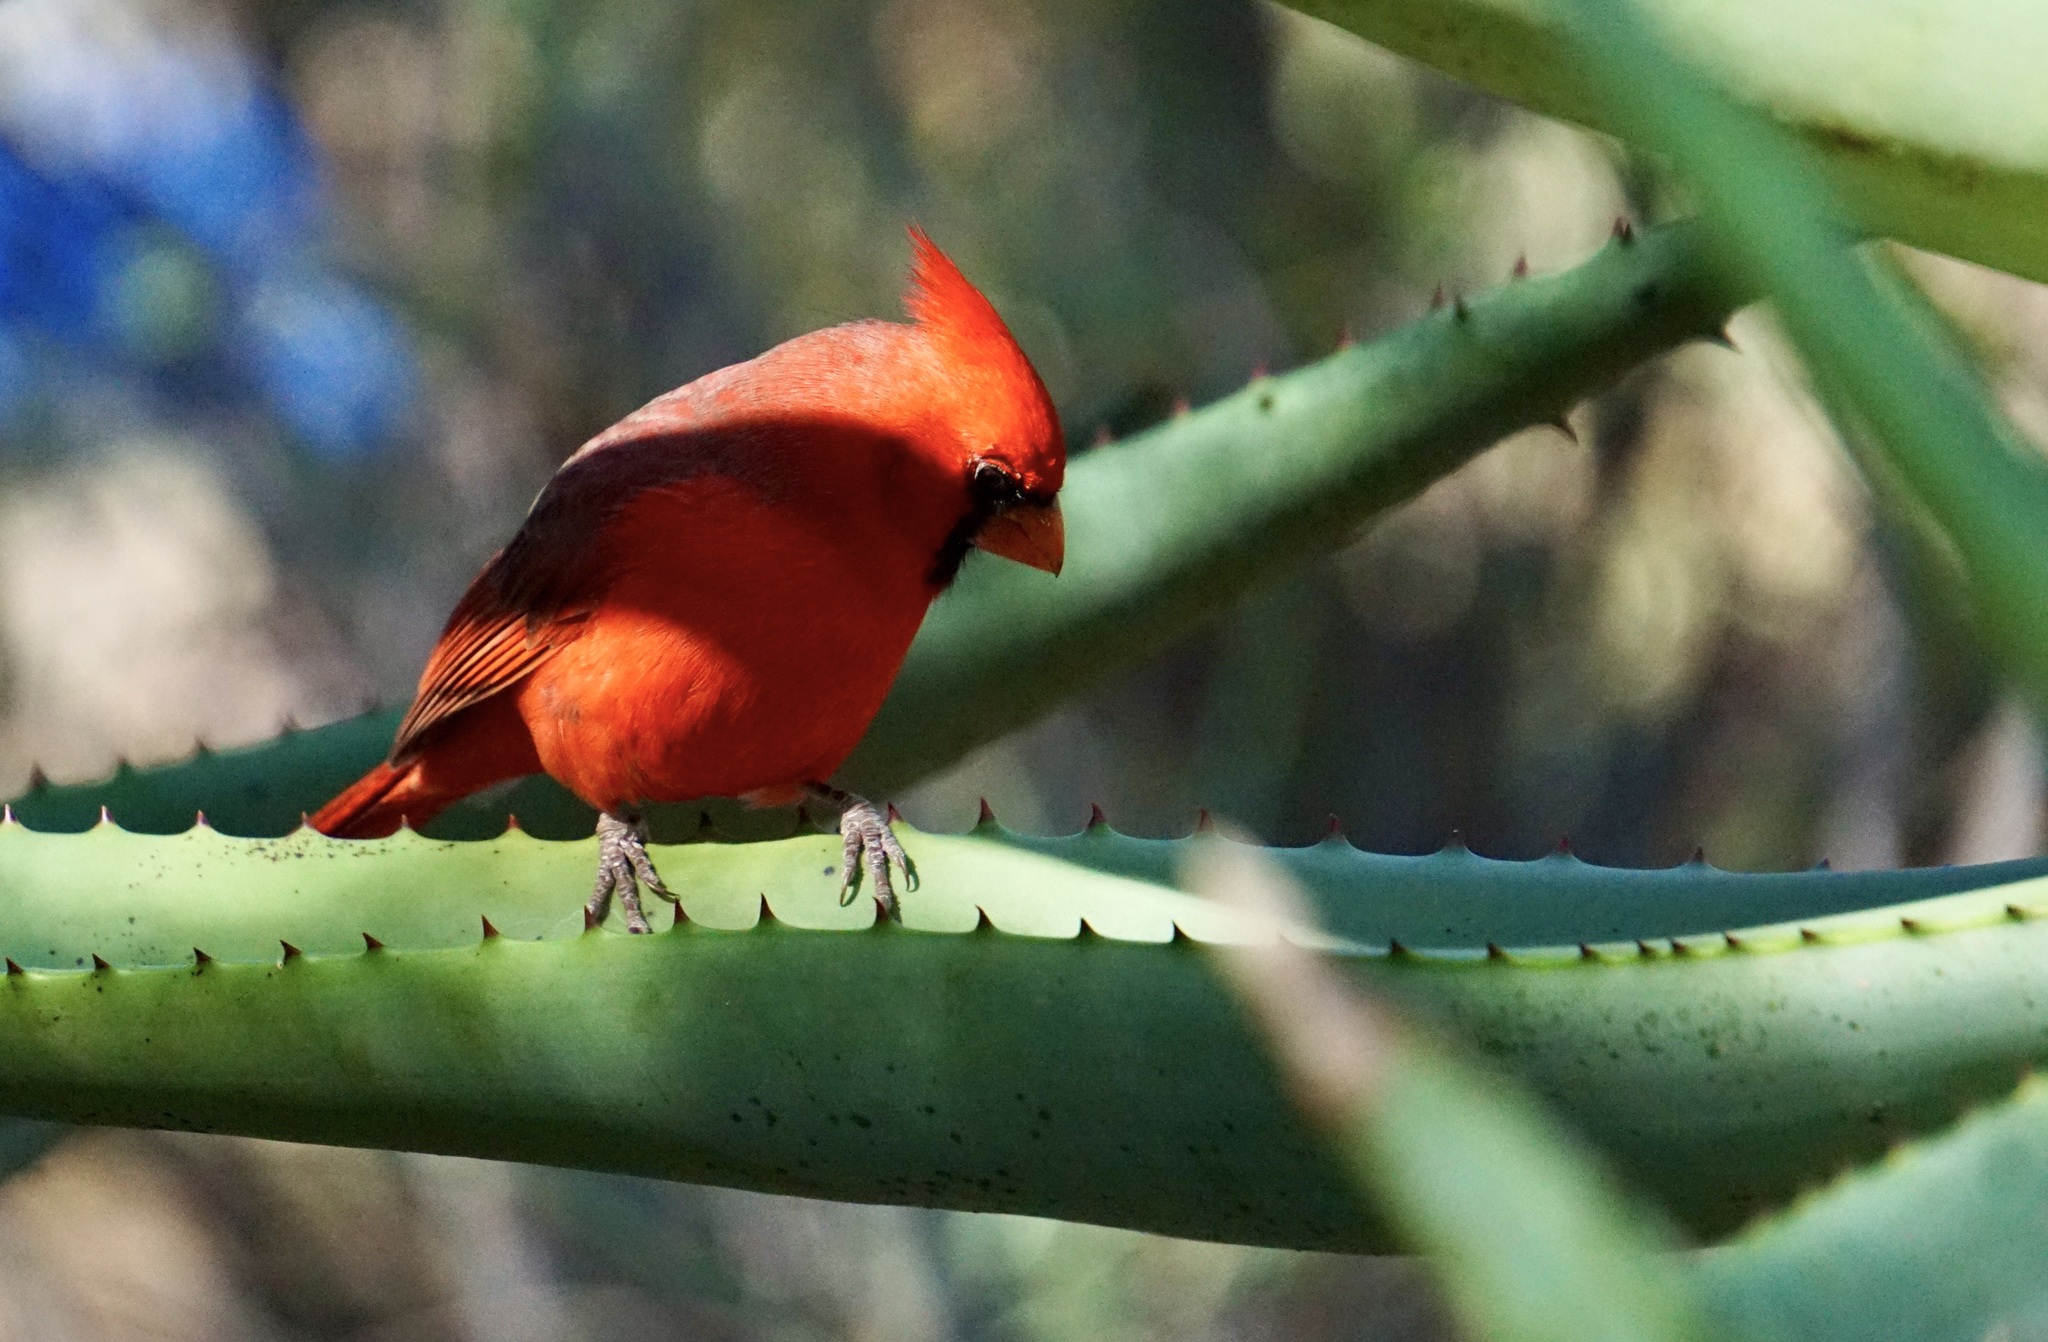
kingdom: Animalia
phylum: Chordata
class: Aves
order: Passeriformes
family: Cardinalidae
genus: Cardinalis
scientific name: Cardinalis cardinalis
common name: Northern cardinal
